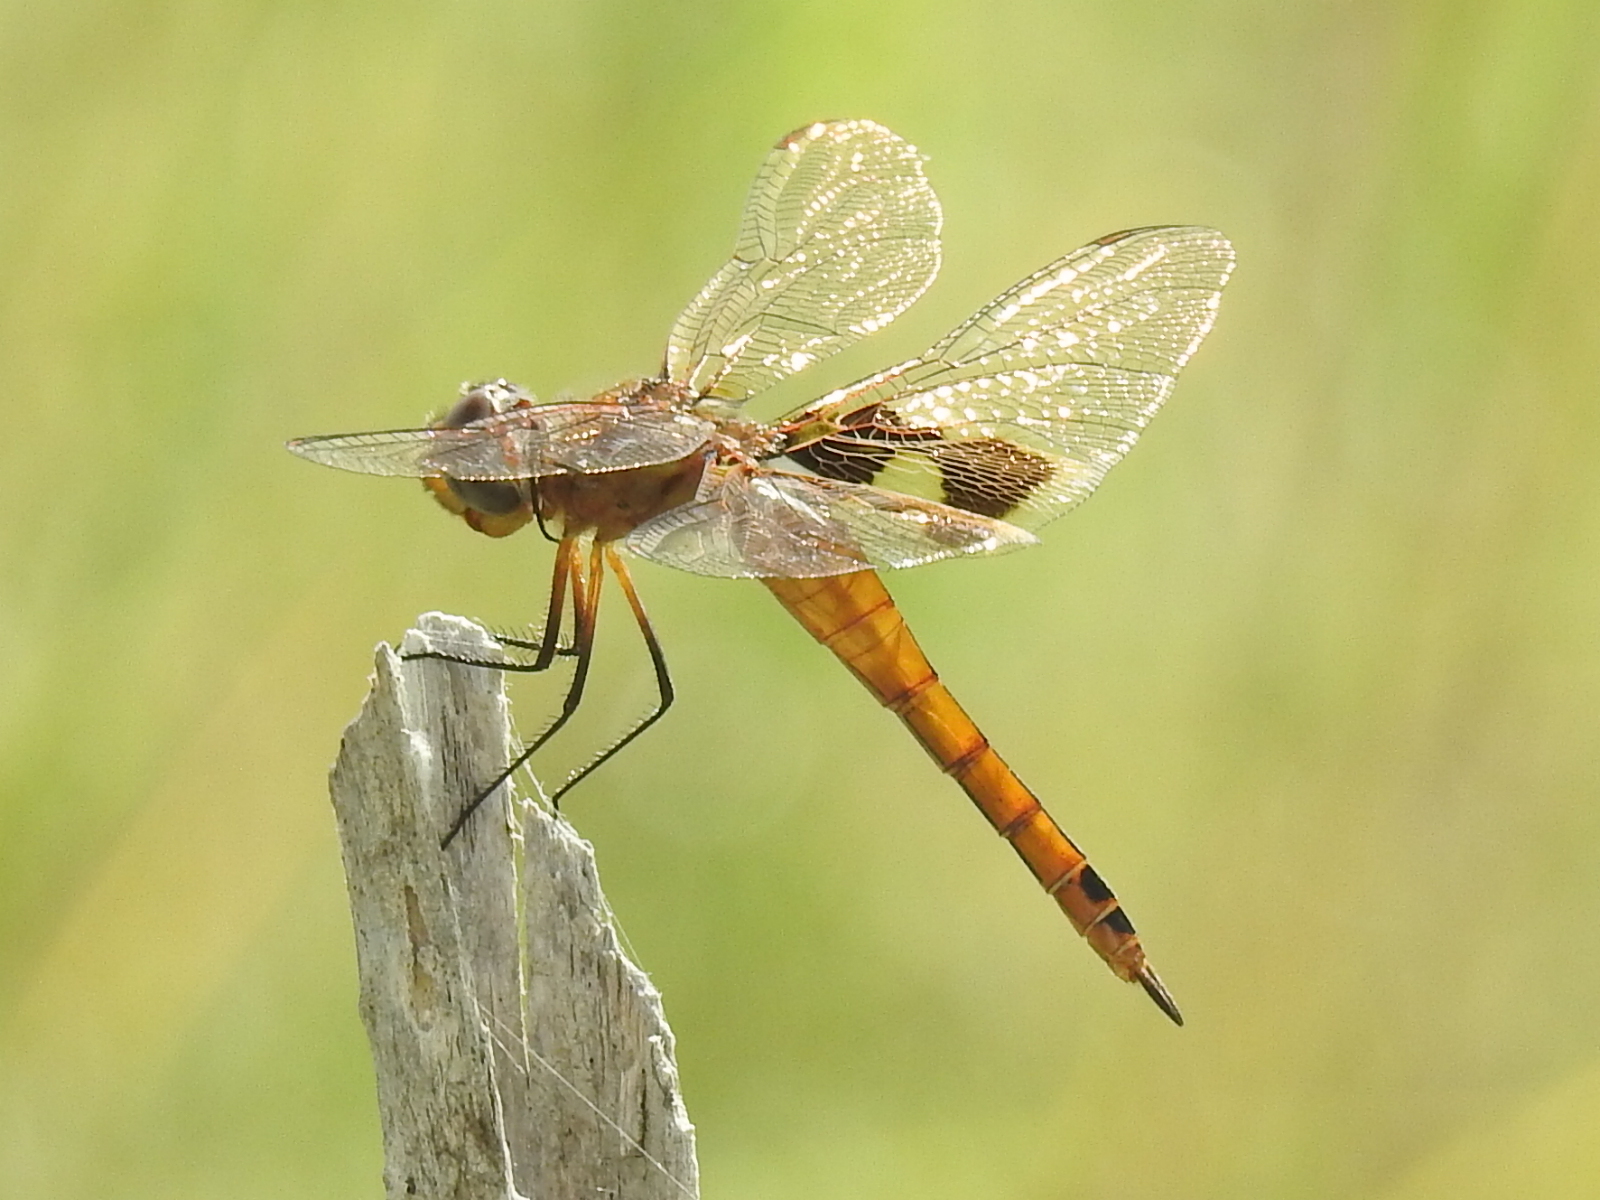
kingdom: Animalia
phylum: Arthropoda
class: Insecta
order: Odonata
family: Libellulidae
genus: Tramea
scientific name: Tramea onusta
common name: Red saddlebags
